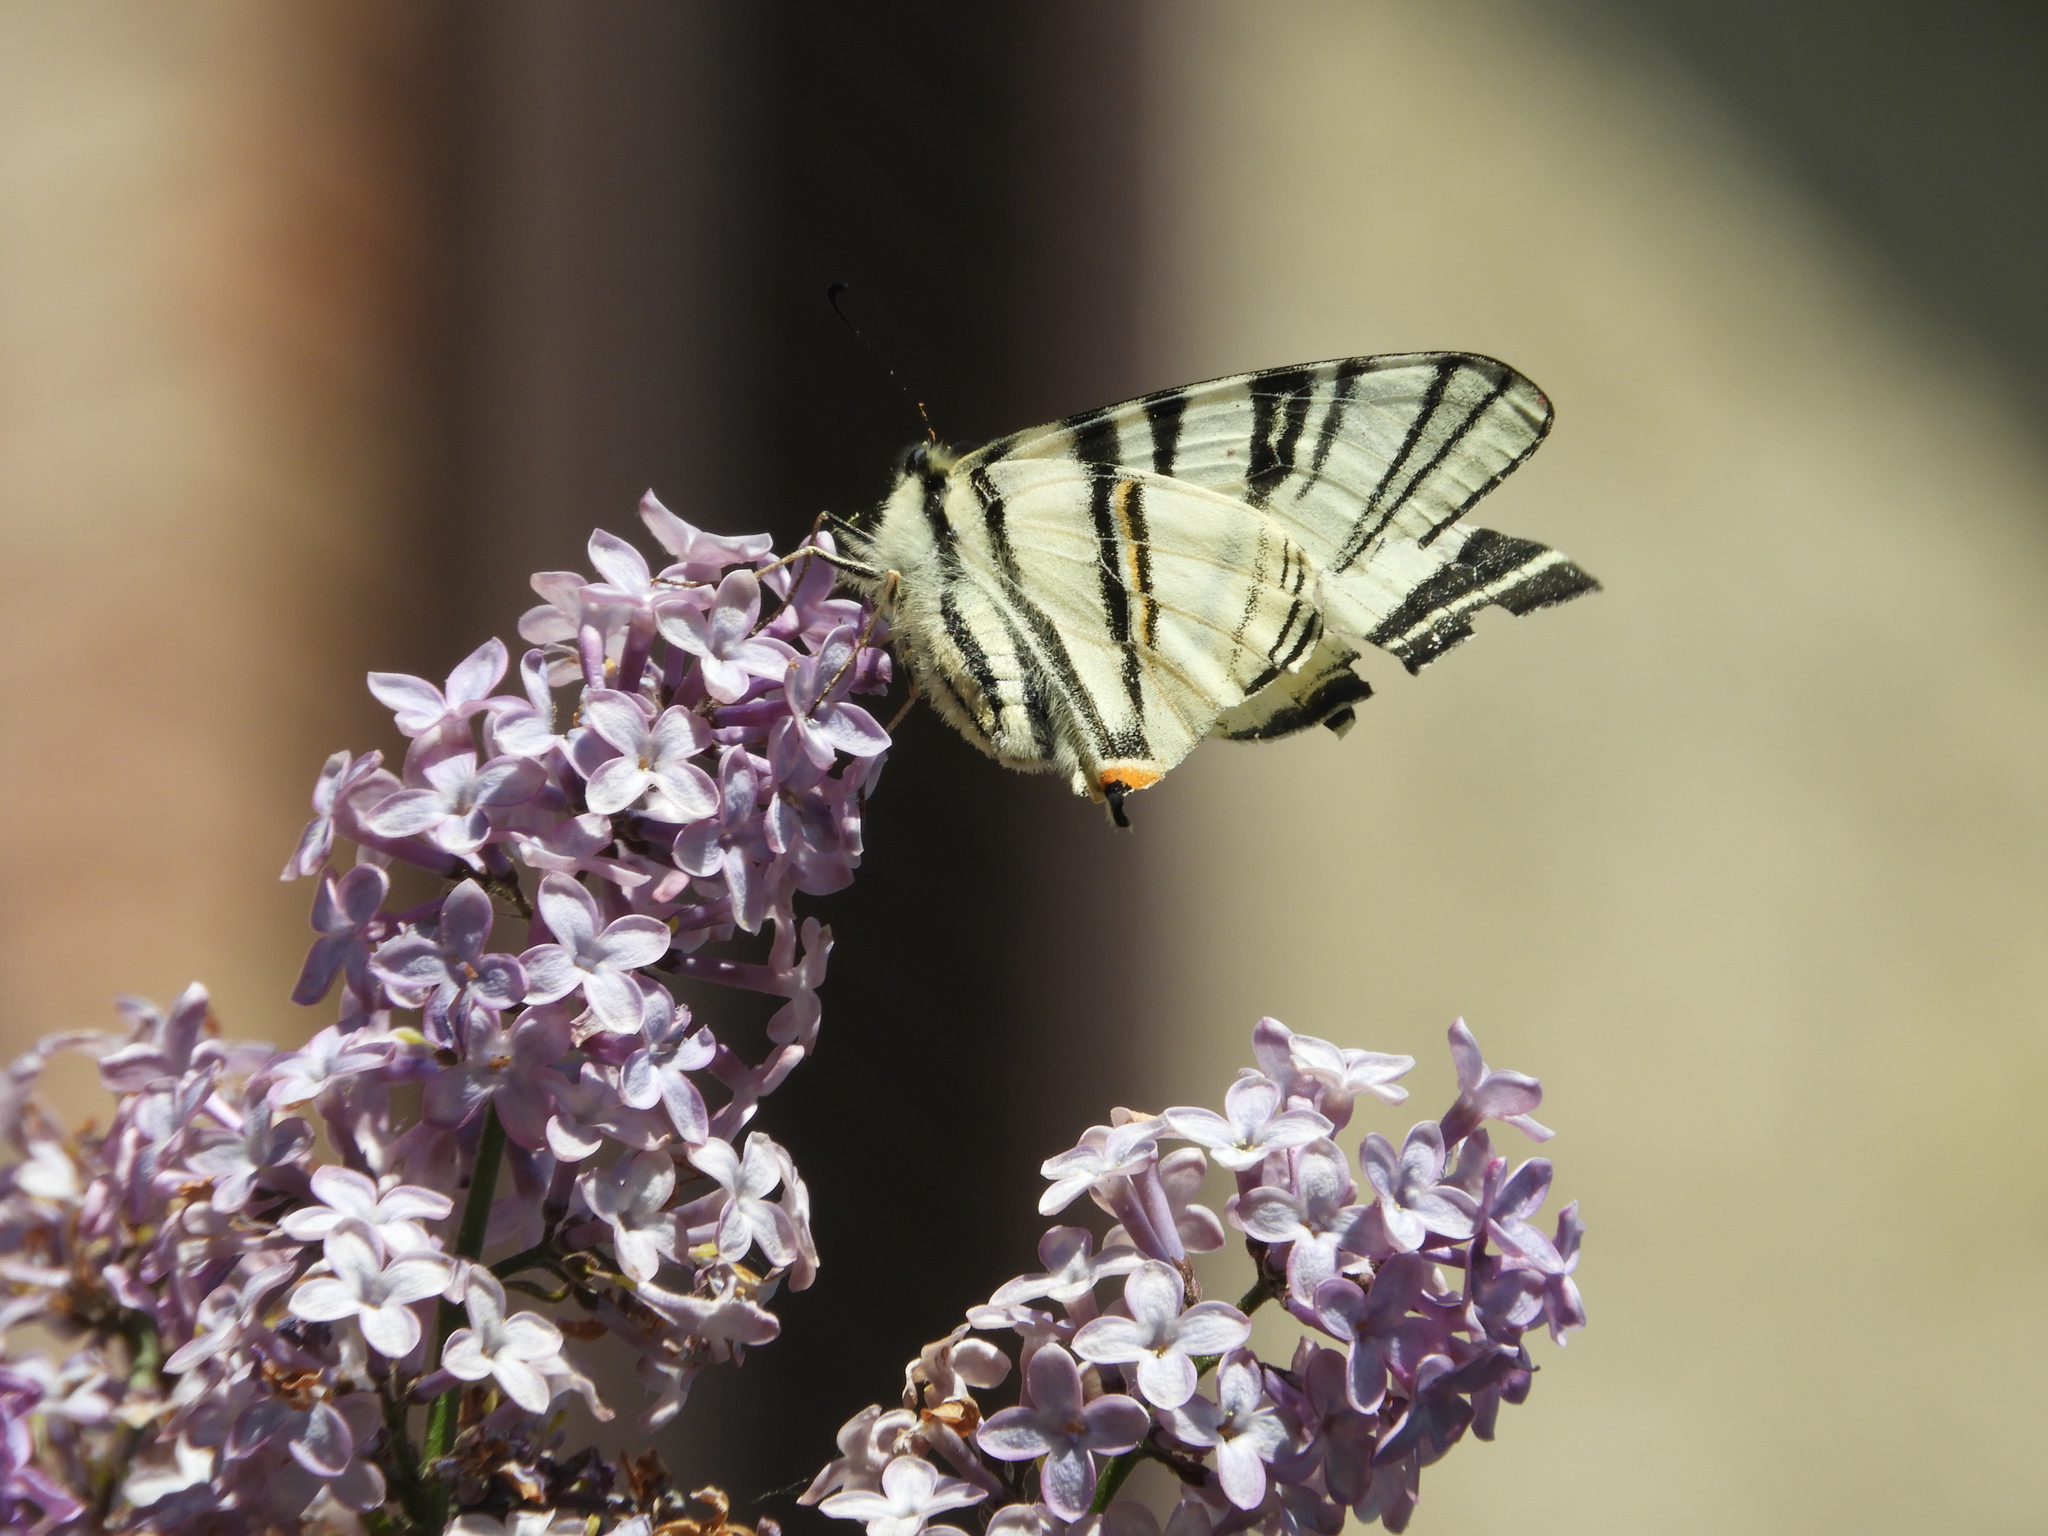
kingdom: Animalia
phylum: Arthropoda
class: Insecta
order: Lepidoptera
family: Papilionidae
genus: Iphiclides
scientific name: Iphiclides podalirius
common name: Scarce swallowtail
